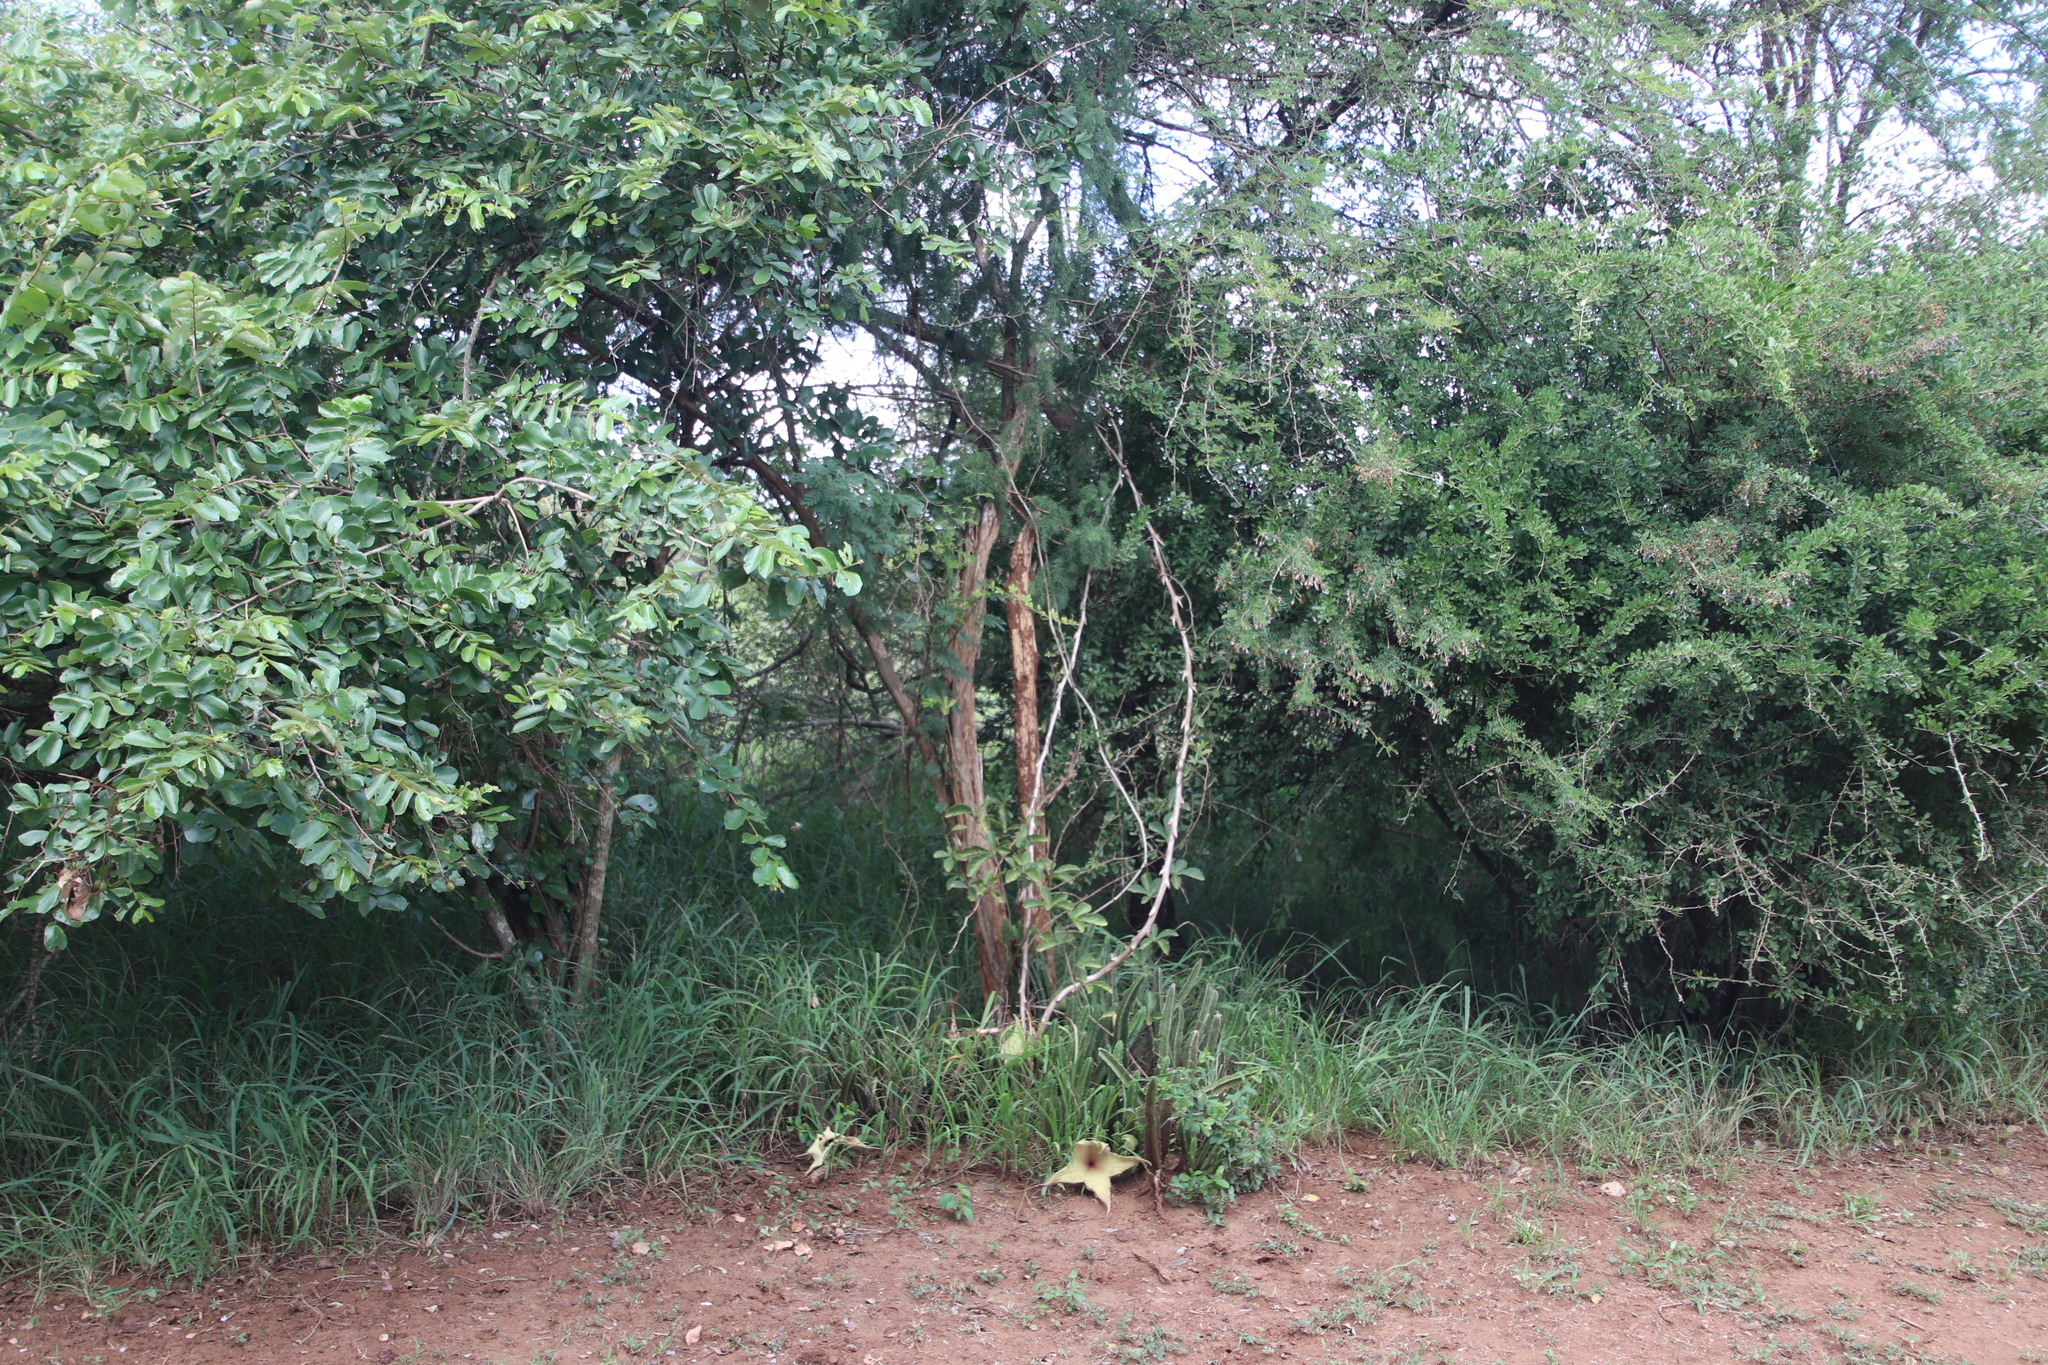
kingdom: Plantae
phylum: Tracheophyta
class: Magnoliopsida
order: Gentianales
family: Apocynaceae
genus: Ceropegia
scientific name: Ceropegia gigantea
